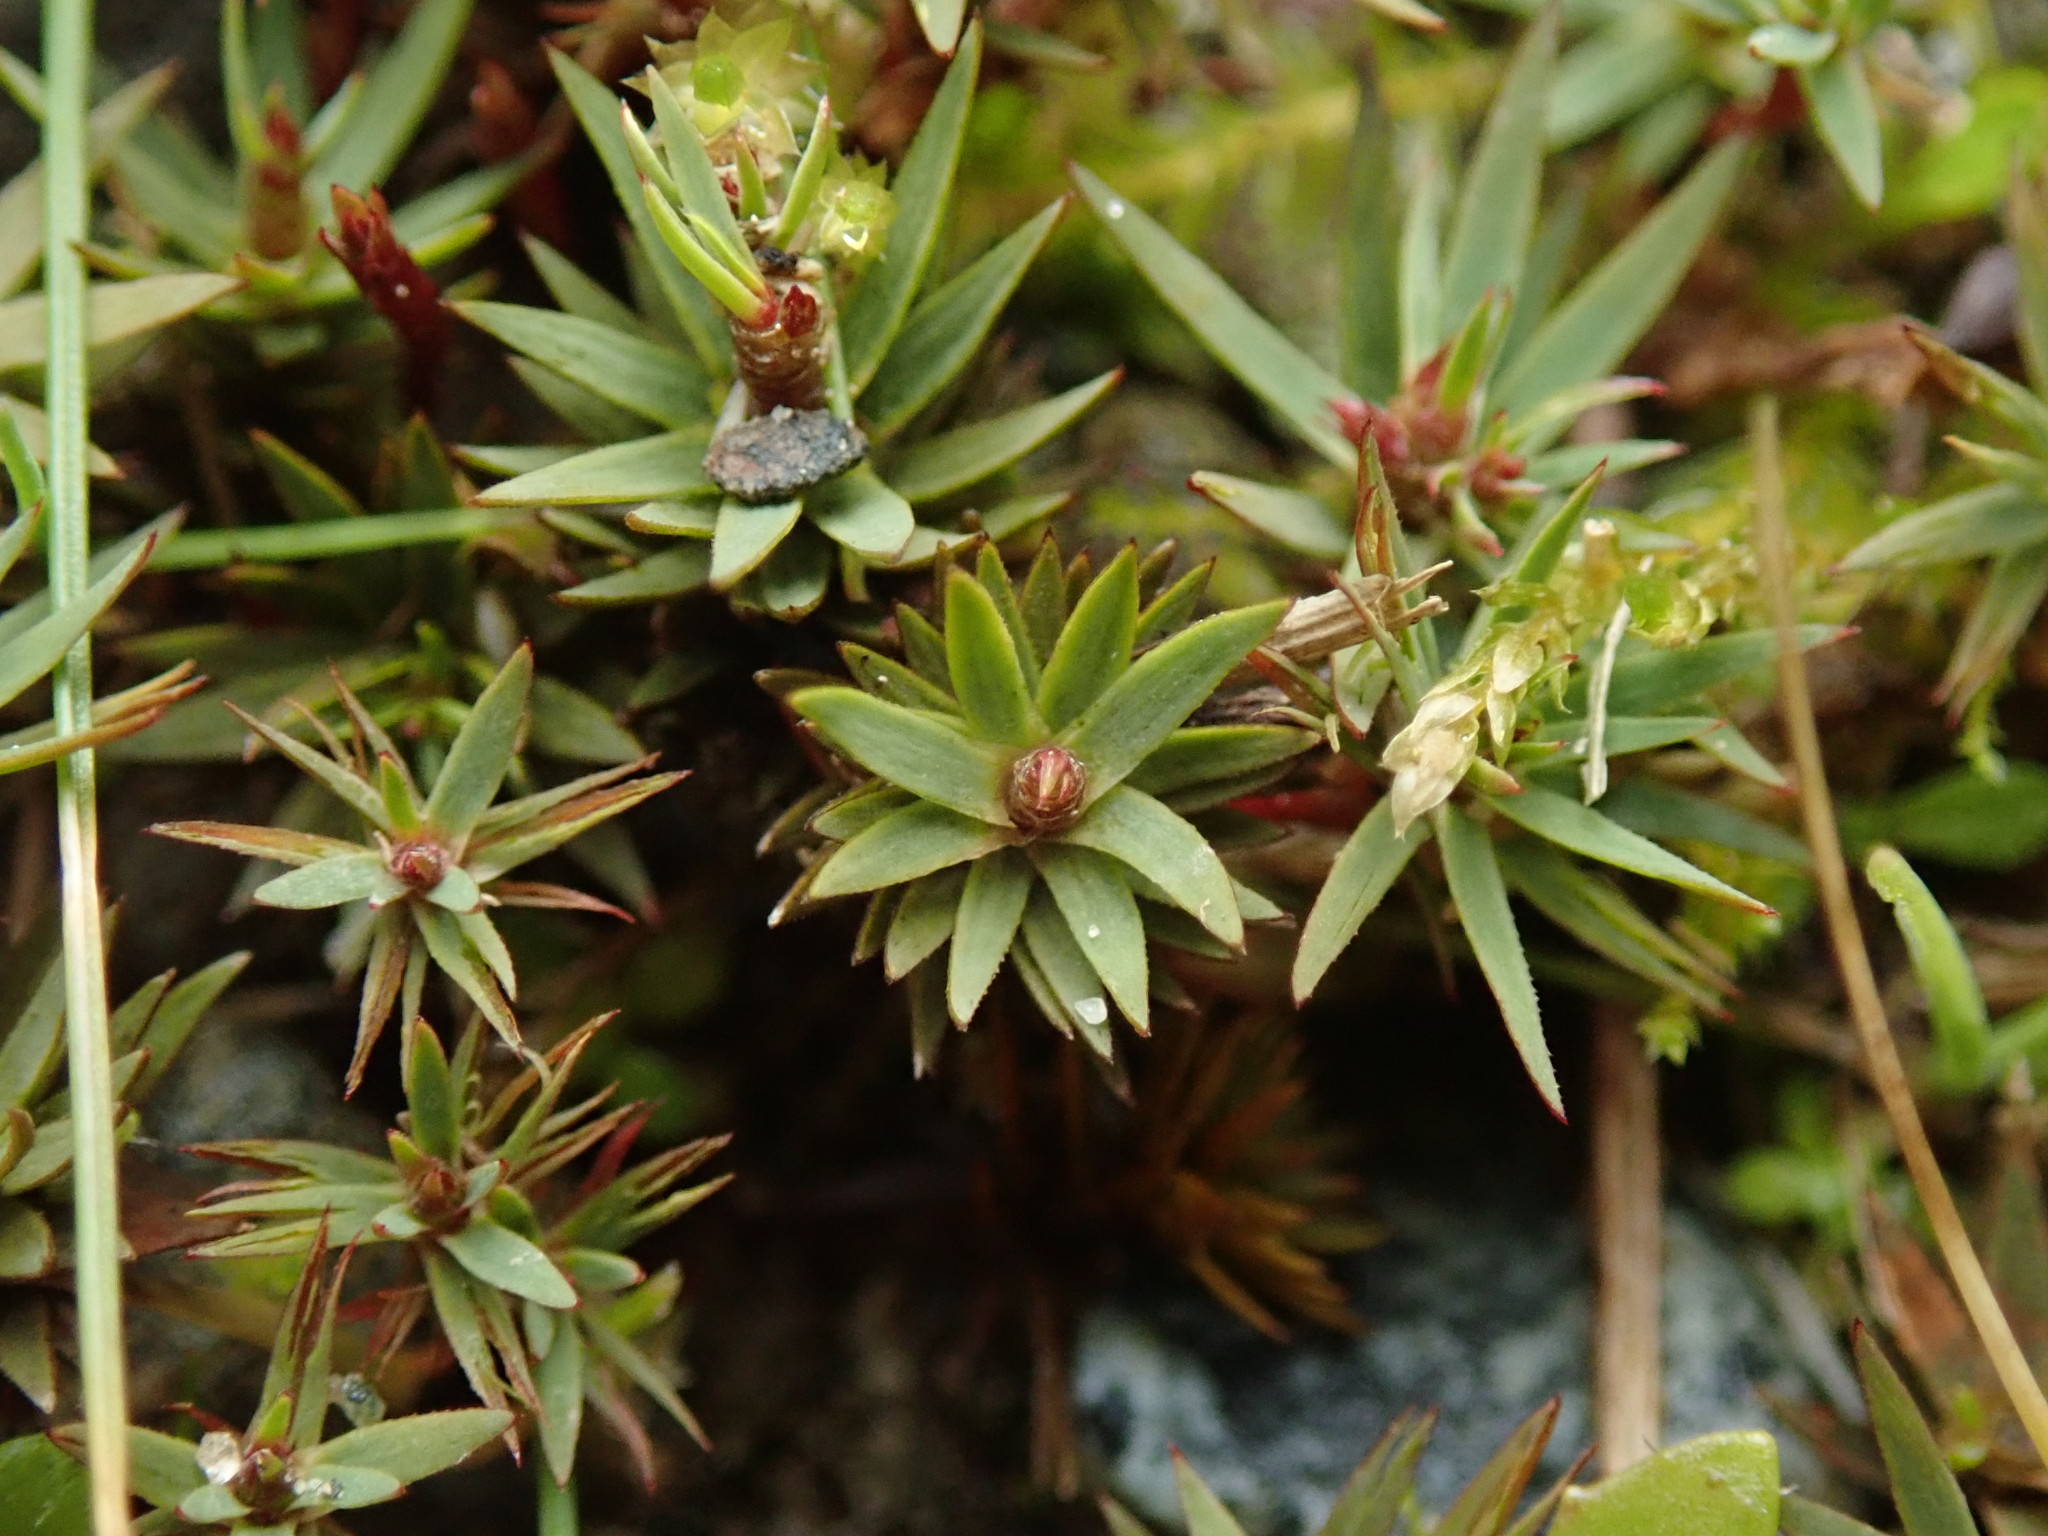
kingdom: Plantae
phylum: Bryophyta
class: Polytrichopsida
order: Polytrichales
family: Polytrichaceae
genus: Pogonatum
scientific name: Pogonatum urnigerum
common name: Urn hair moss
